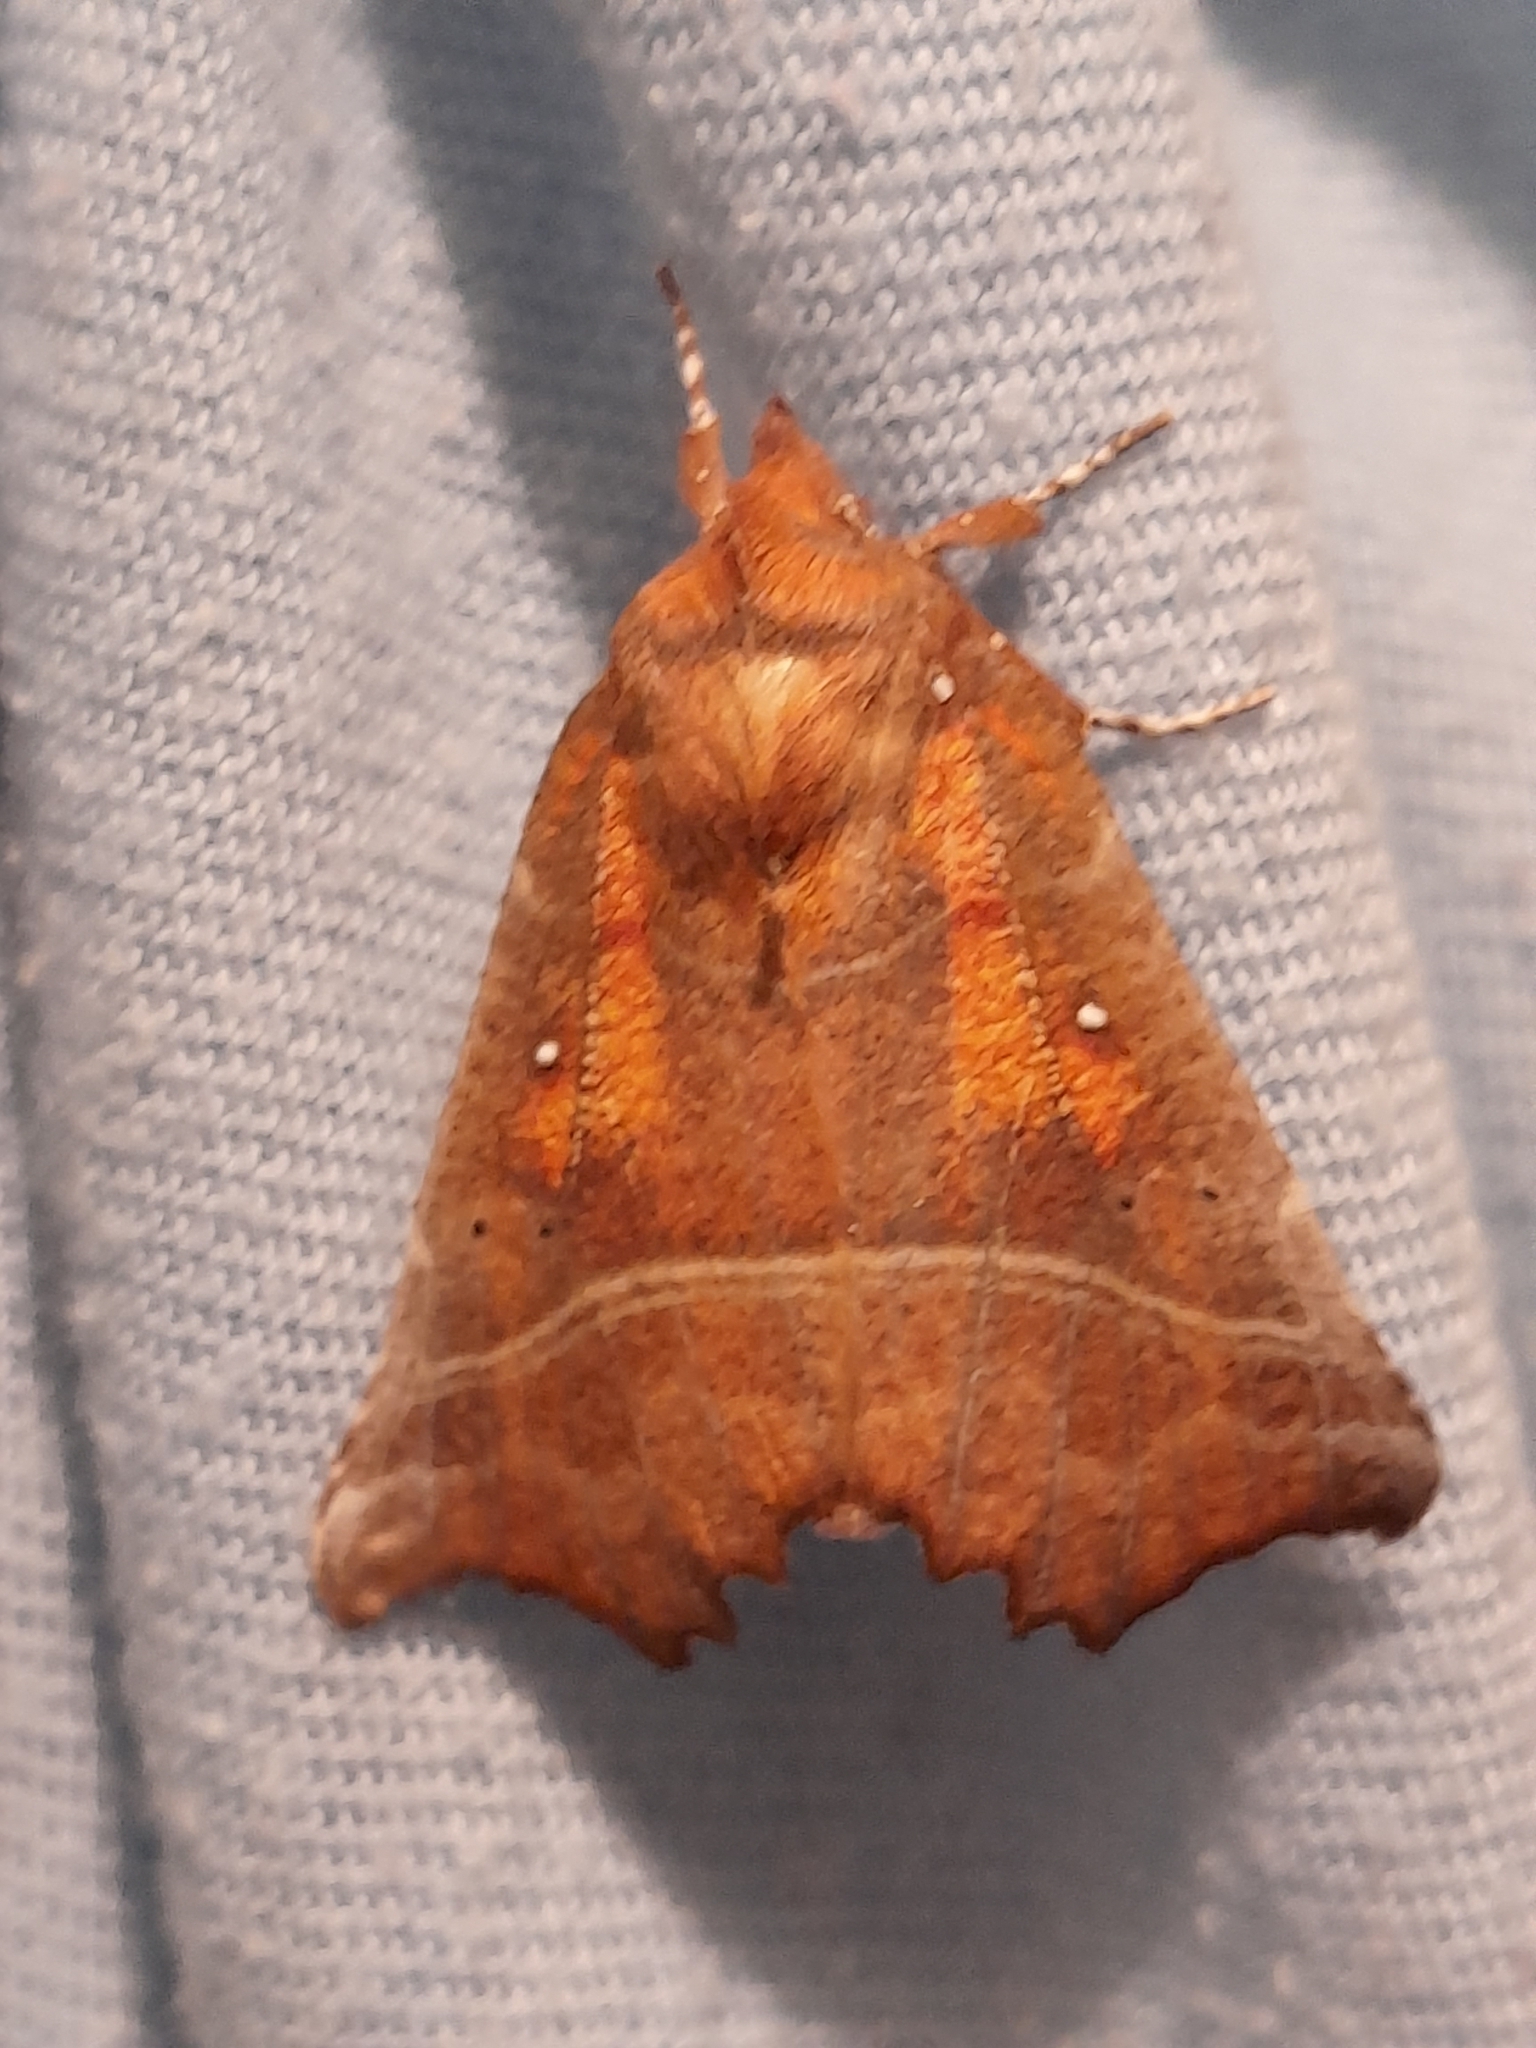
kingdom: Animalia
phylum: Arthropoda
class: Insecta
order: Lepidoptera
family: Erebidae
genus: Scoliopteryx
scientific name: Scoliopteryx libatrix
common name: Herald
